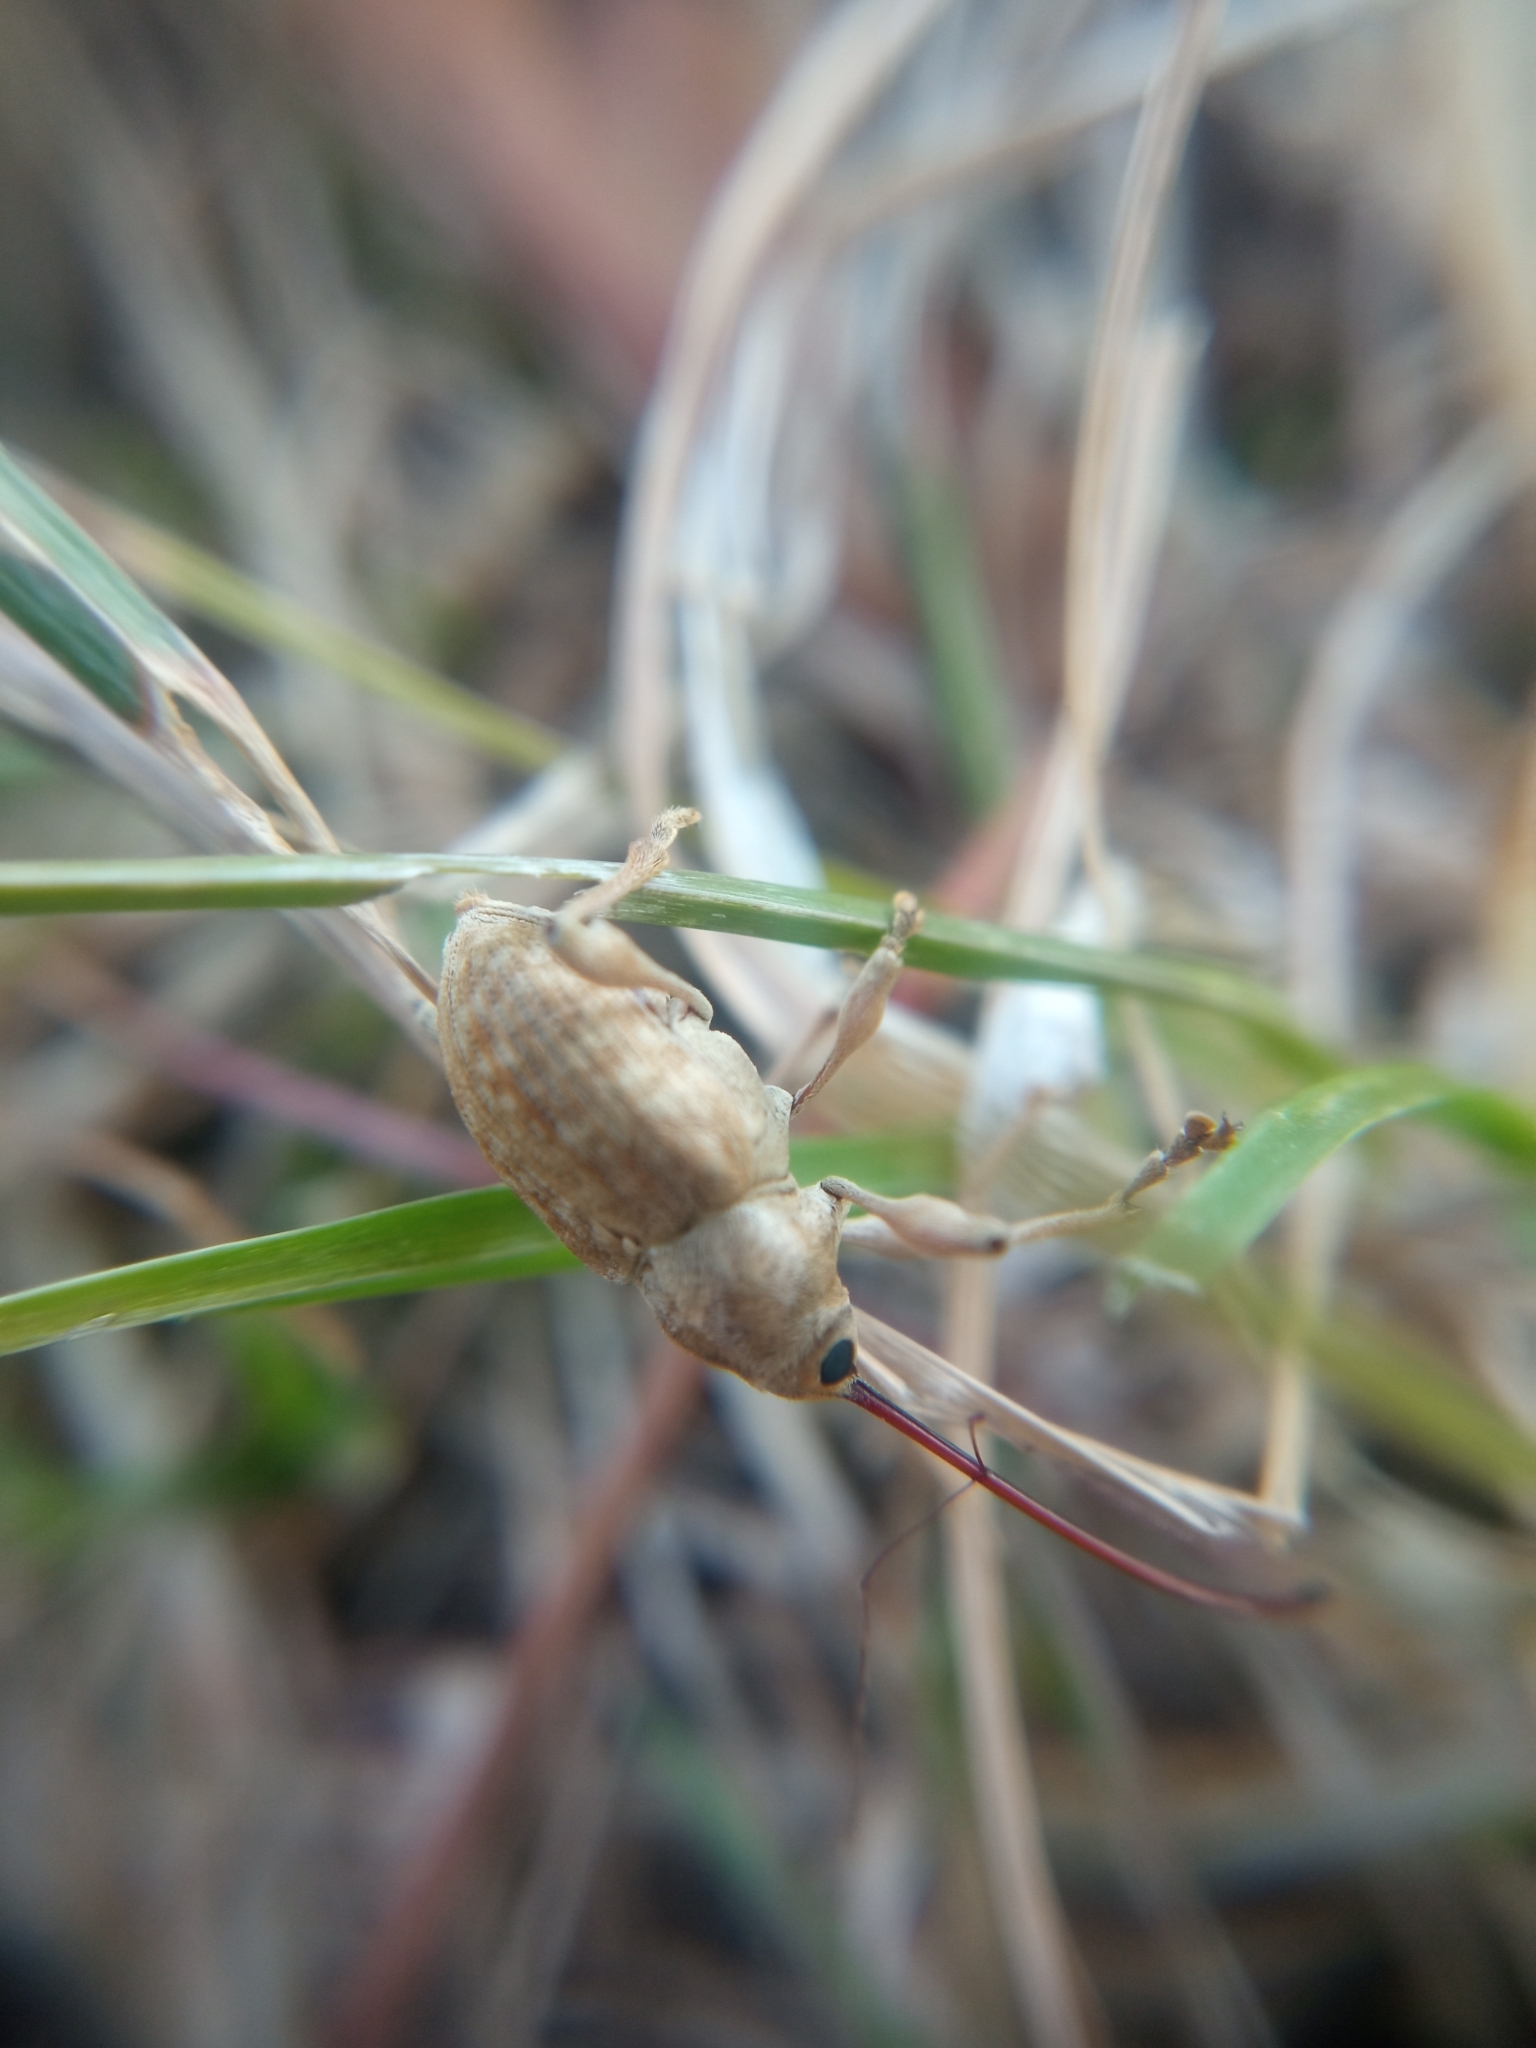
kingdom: Animalia
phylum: Arthropoda
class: Insecta
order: Coleoptera
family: Curculionidae
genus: Curculio
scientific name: Curculio elephas
